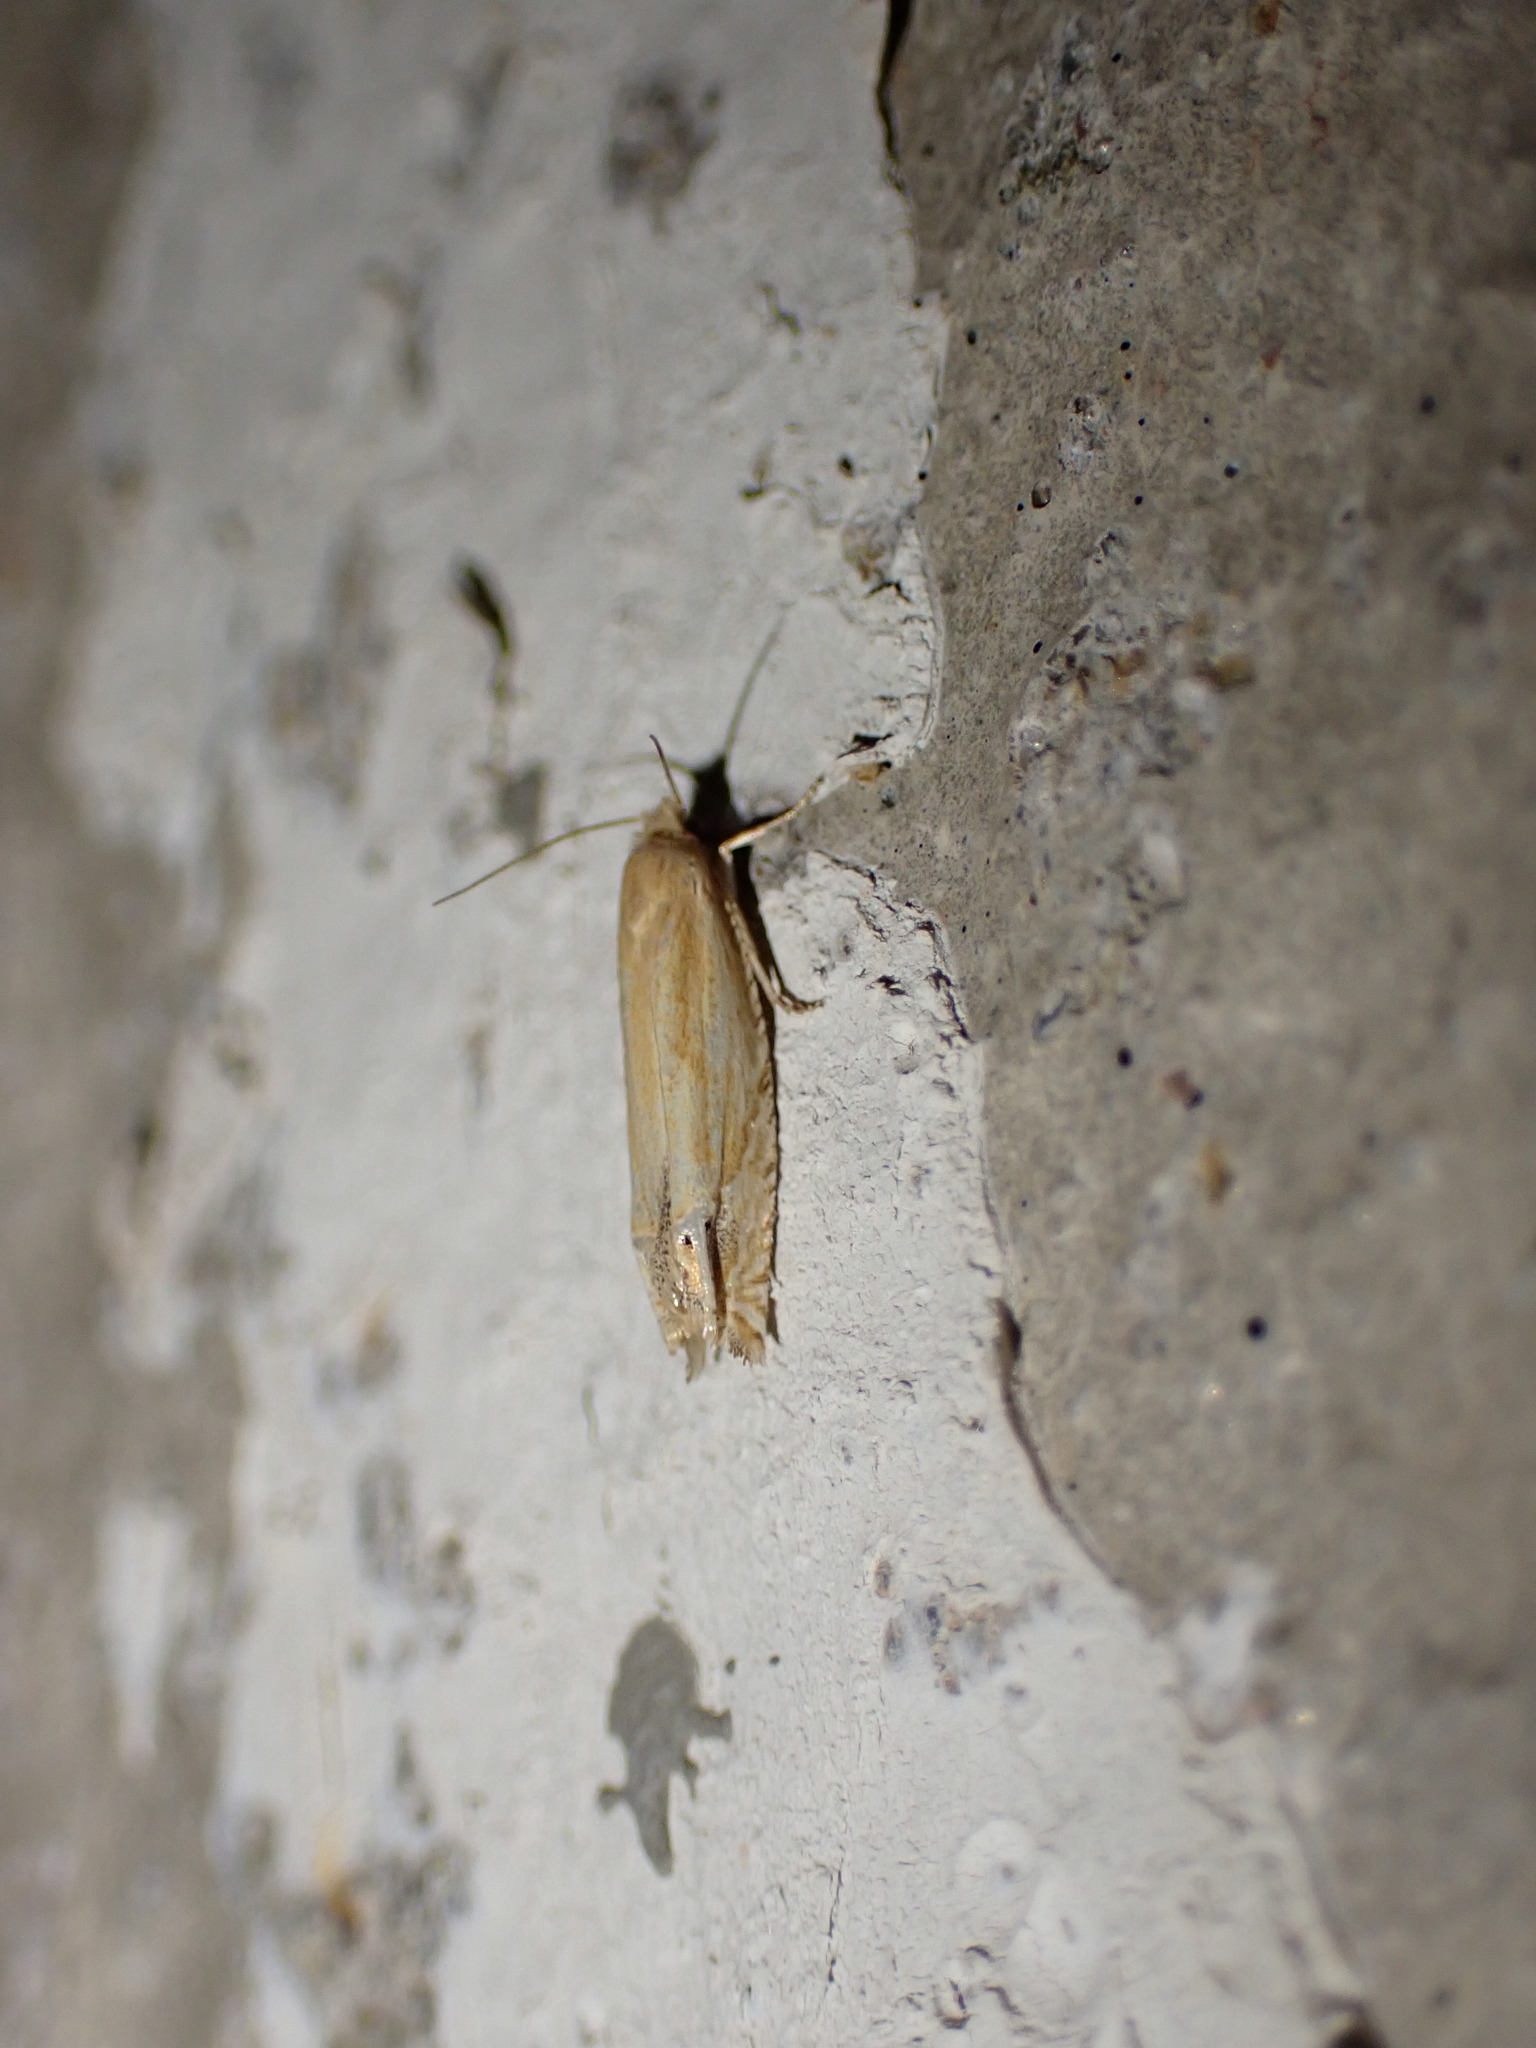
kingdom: Animalia
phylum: Arthropoda
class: Insecta
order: Lepidoptera
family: Tortricidae
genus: Pelochrista
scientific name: Pelochrista cataclystiana
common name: Goldenrod pelochrista moth
